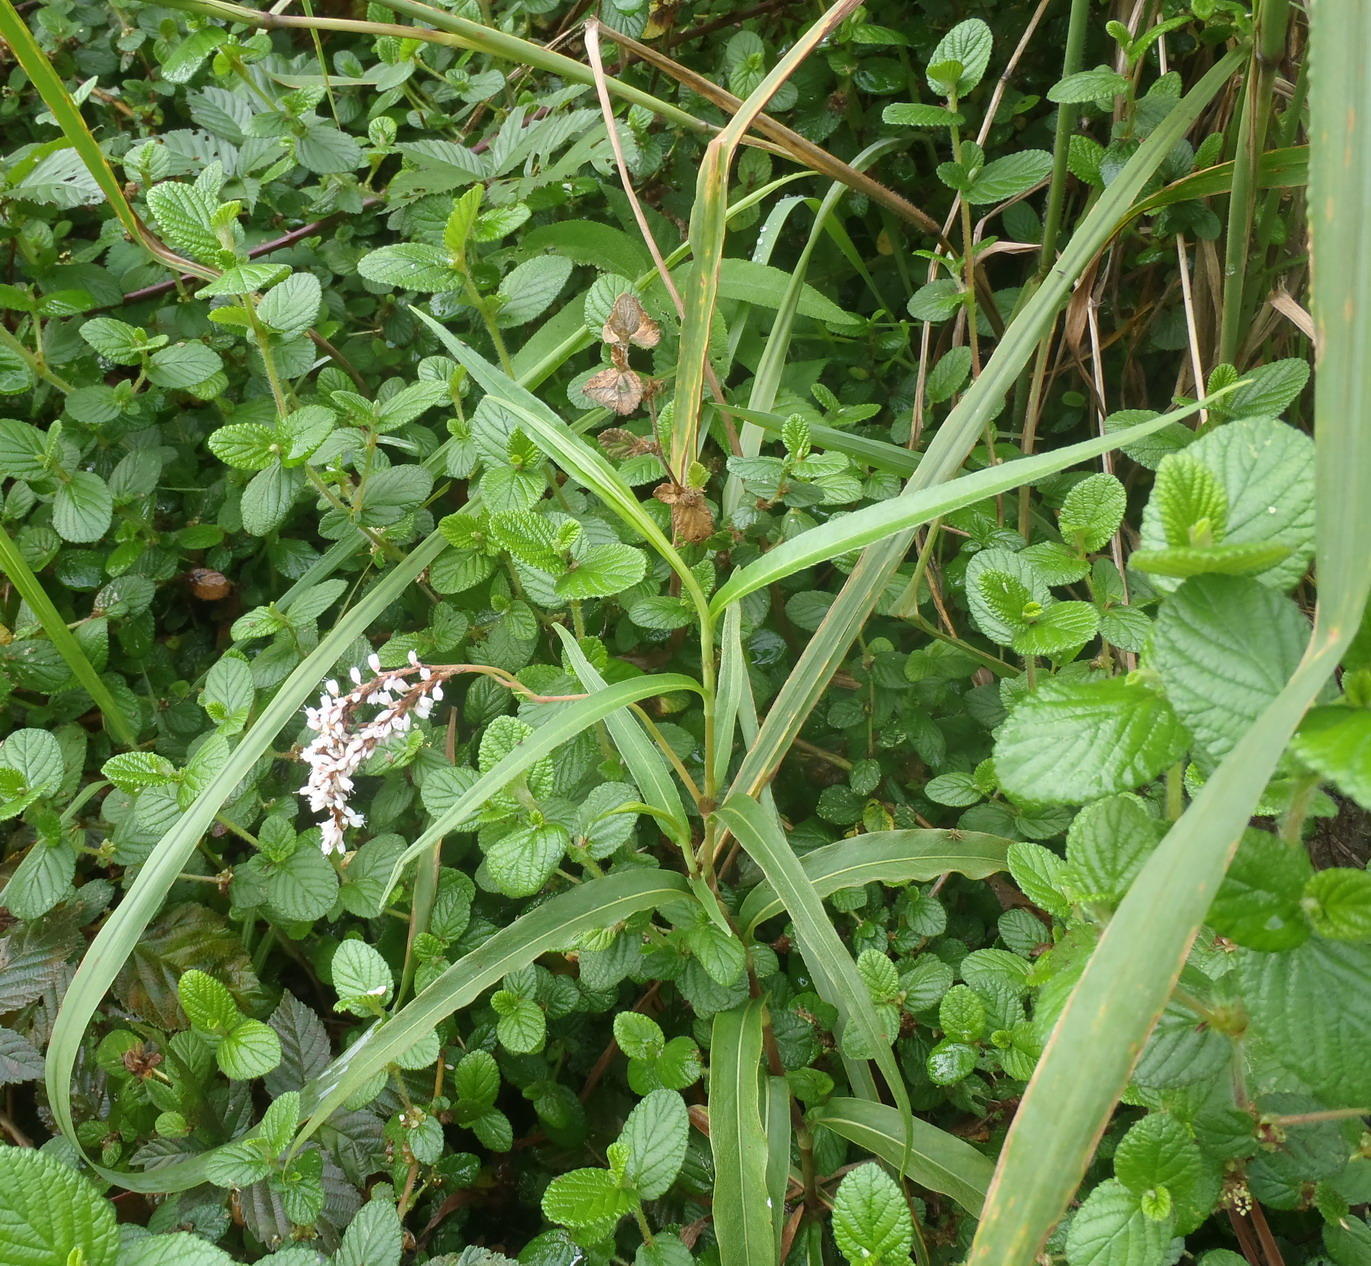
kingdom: Plantae
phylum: Tracheophyta
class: Magnoliopsida
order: Caryophyllales
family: Polygonaceae
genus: Persicaria
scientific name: Persicaria madagascariensis
